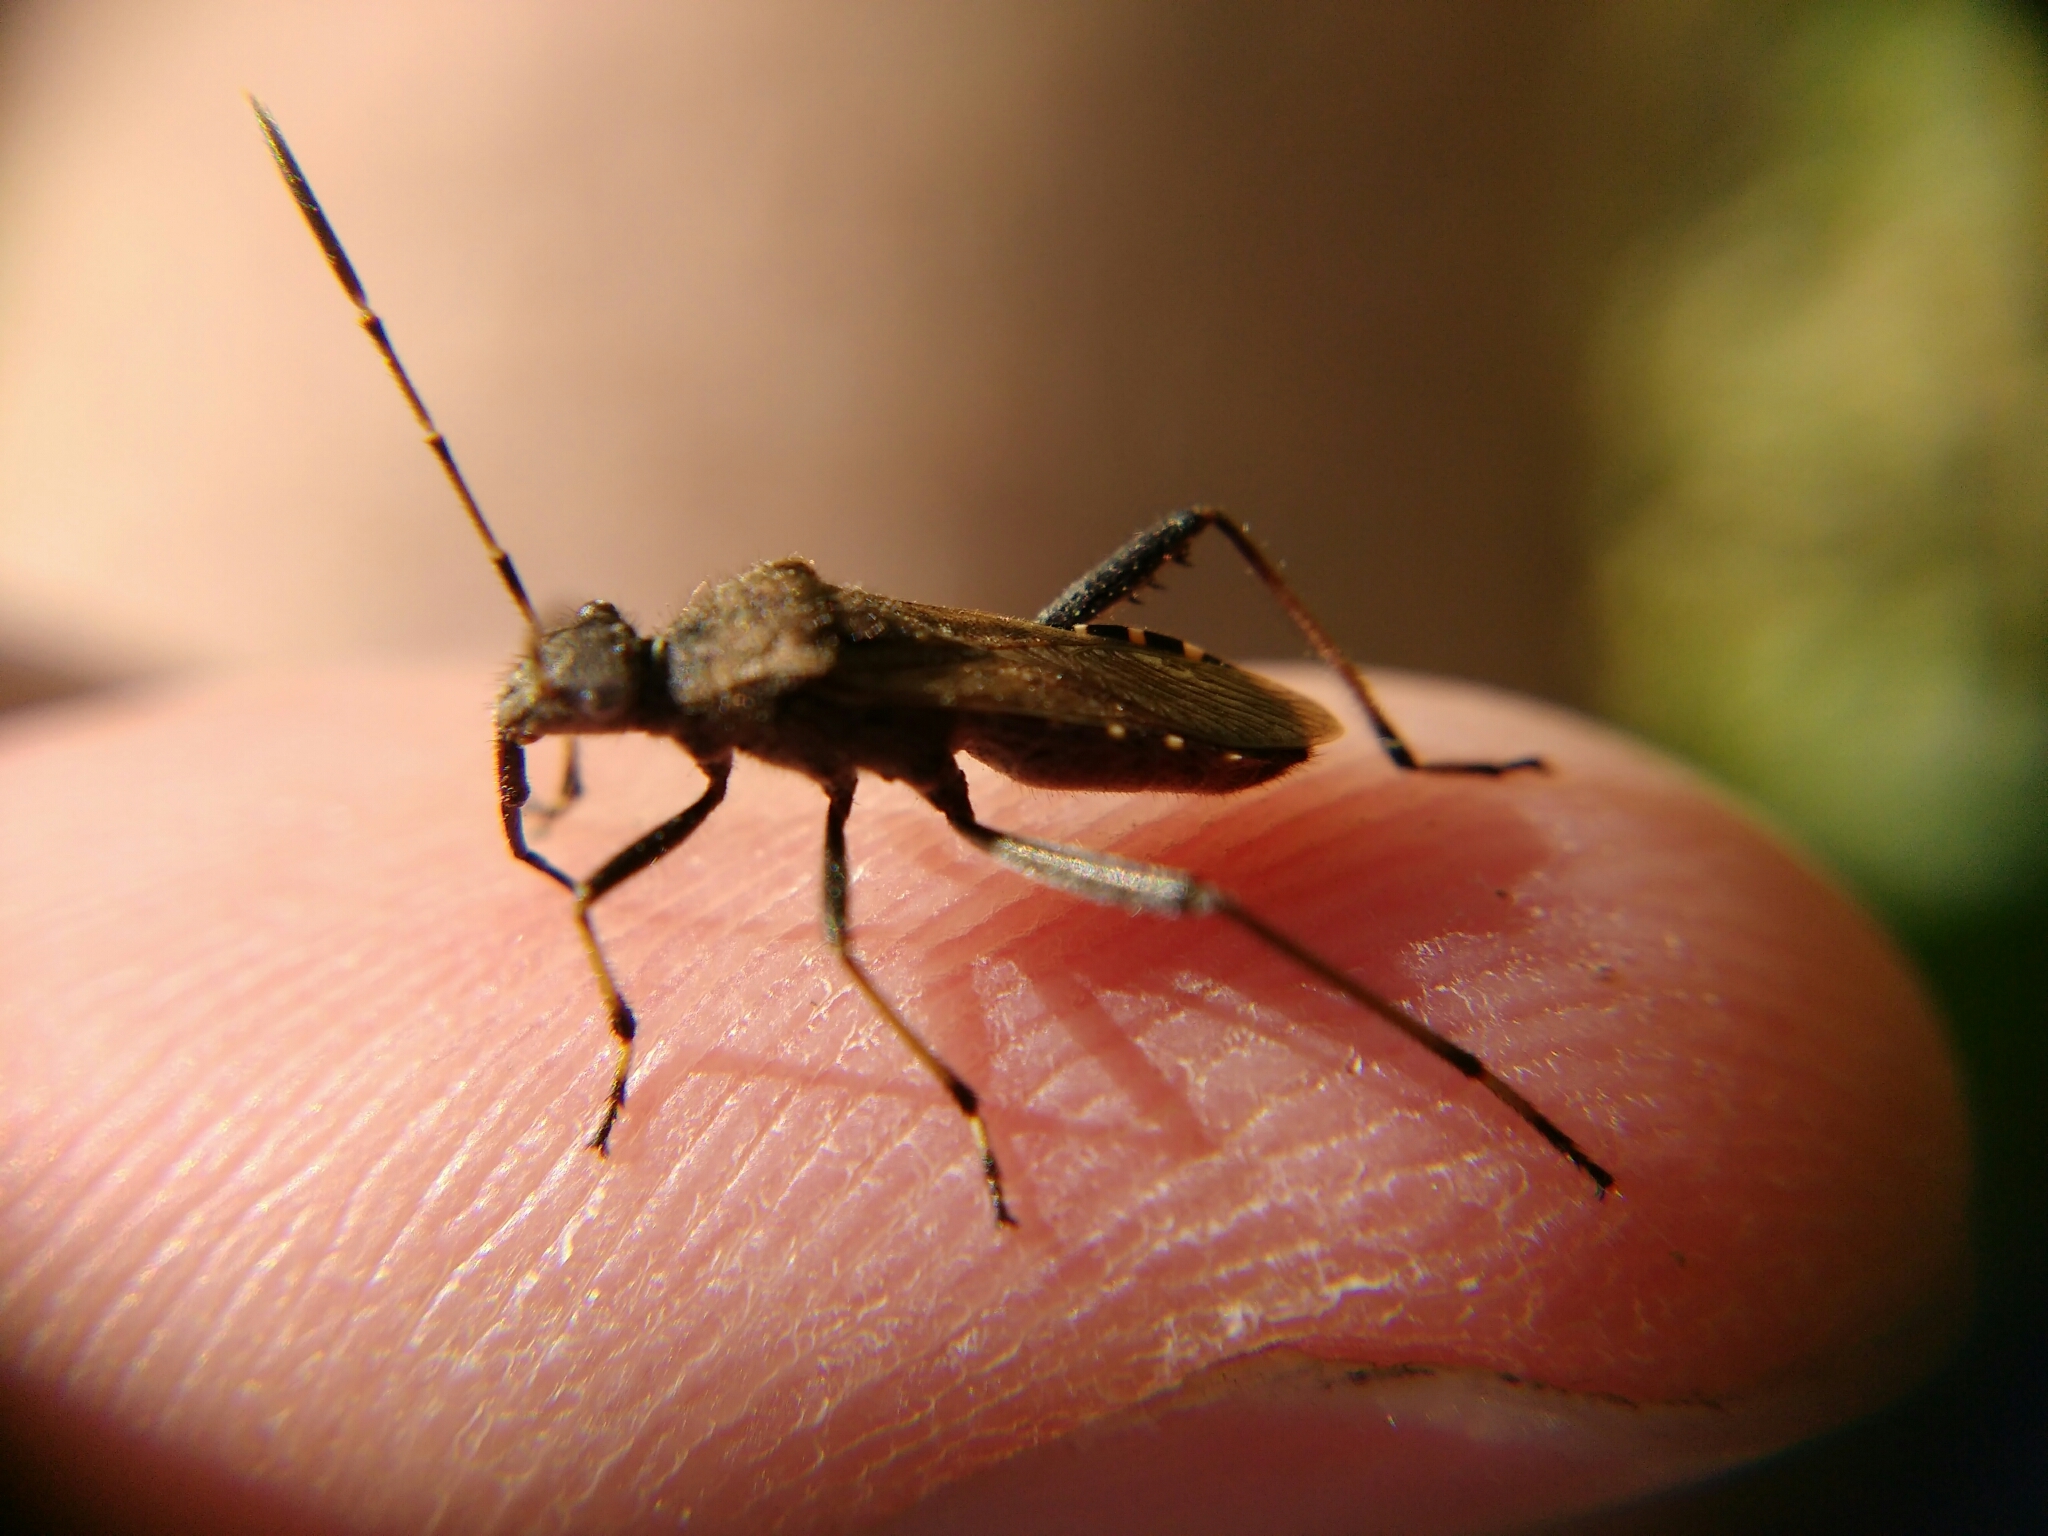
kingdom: Animalia
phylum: Arthropoda
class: Insecta
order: Hemiptera
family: Alydidae
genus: Alydus
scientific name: Alydus calcaratus
